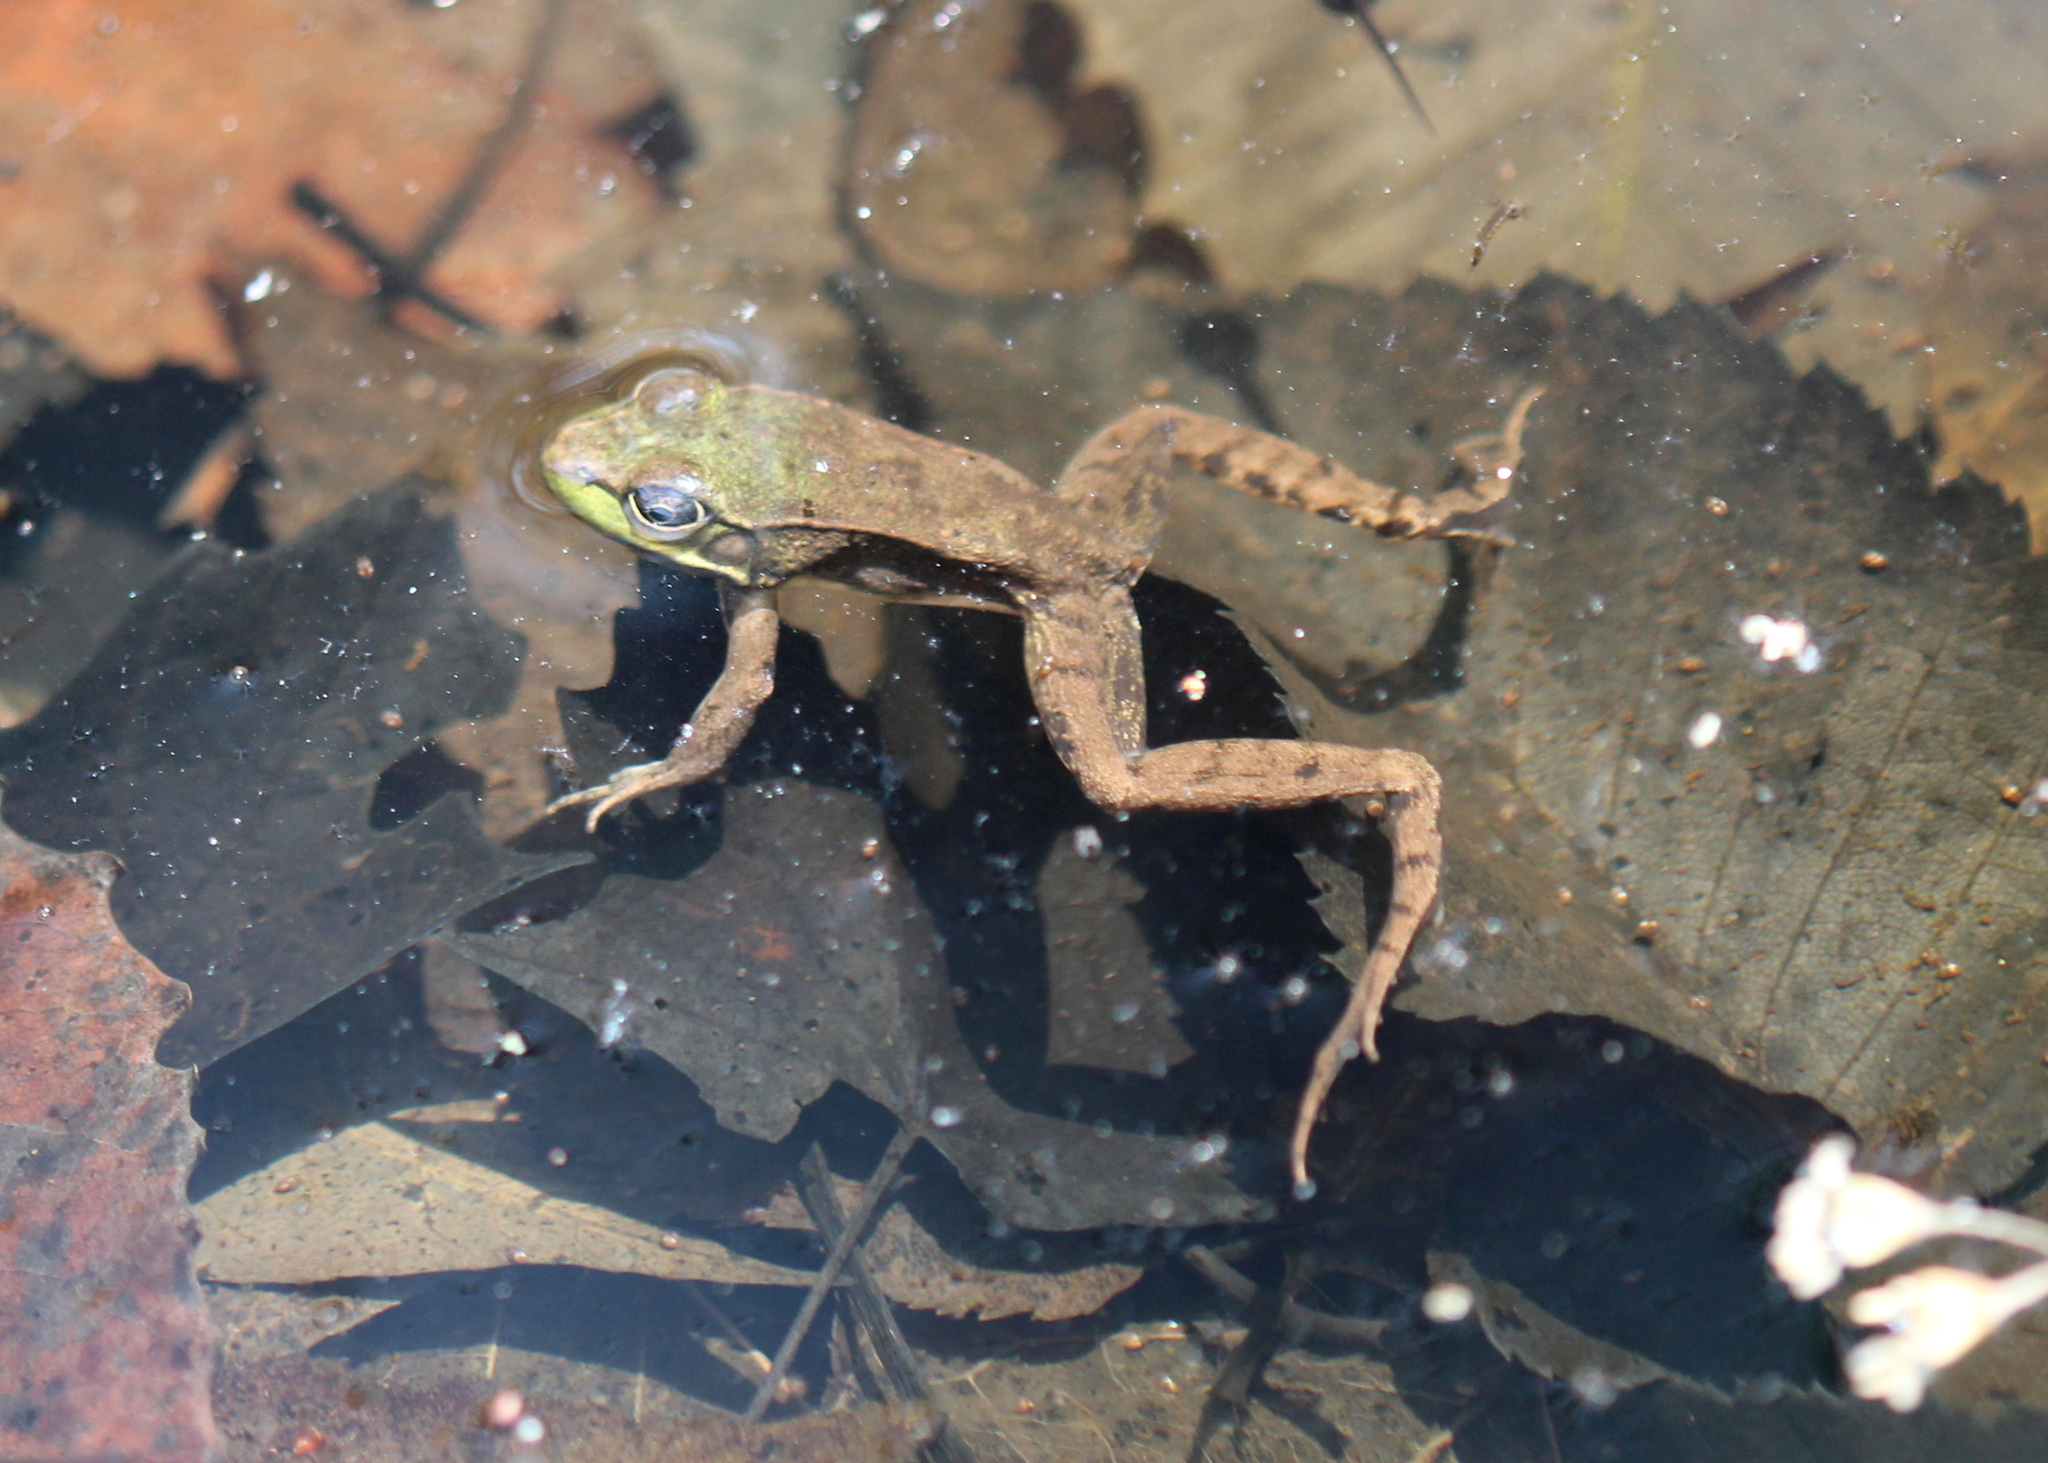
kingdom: Animalia
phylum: Chordata
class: Amphibia
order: Anura
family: Ranidae
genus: Lithobates
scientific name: Lithobates clamitans
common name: Green frog
